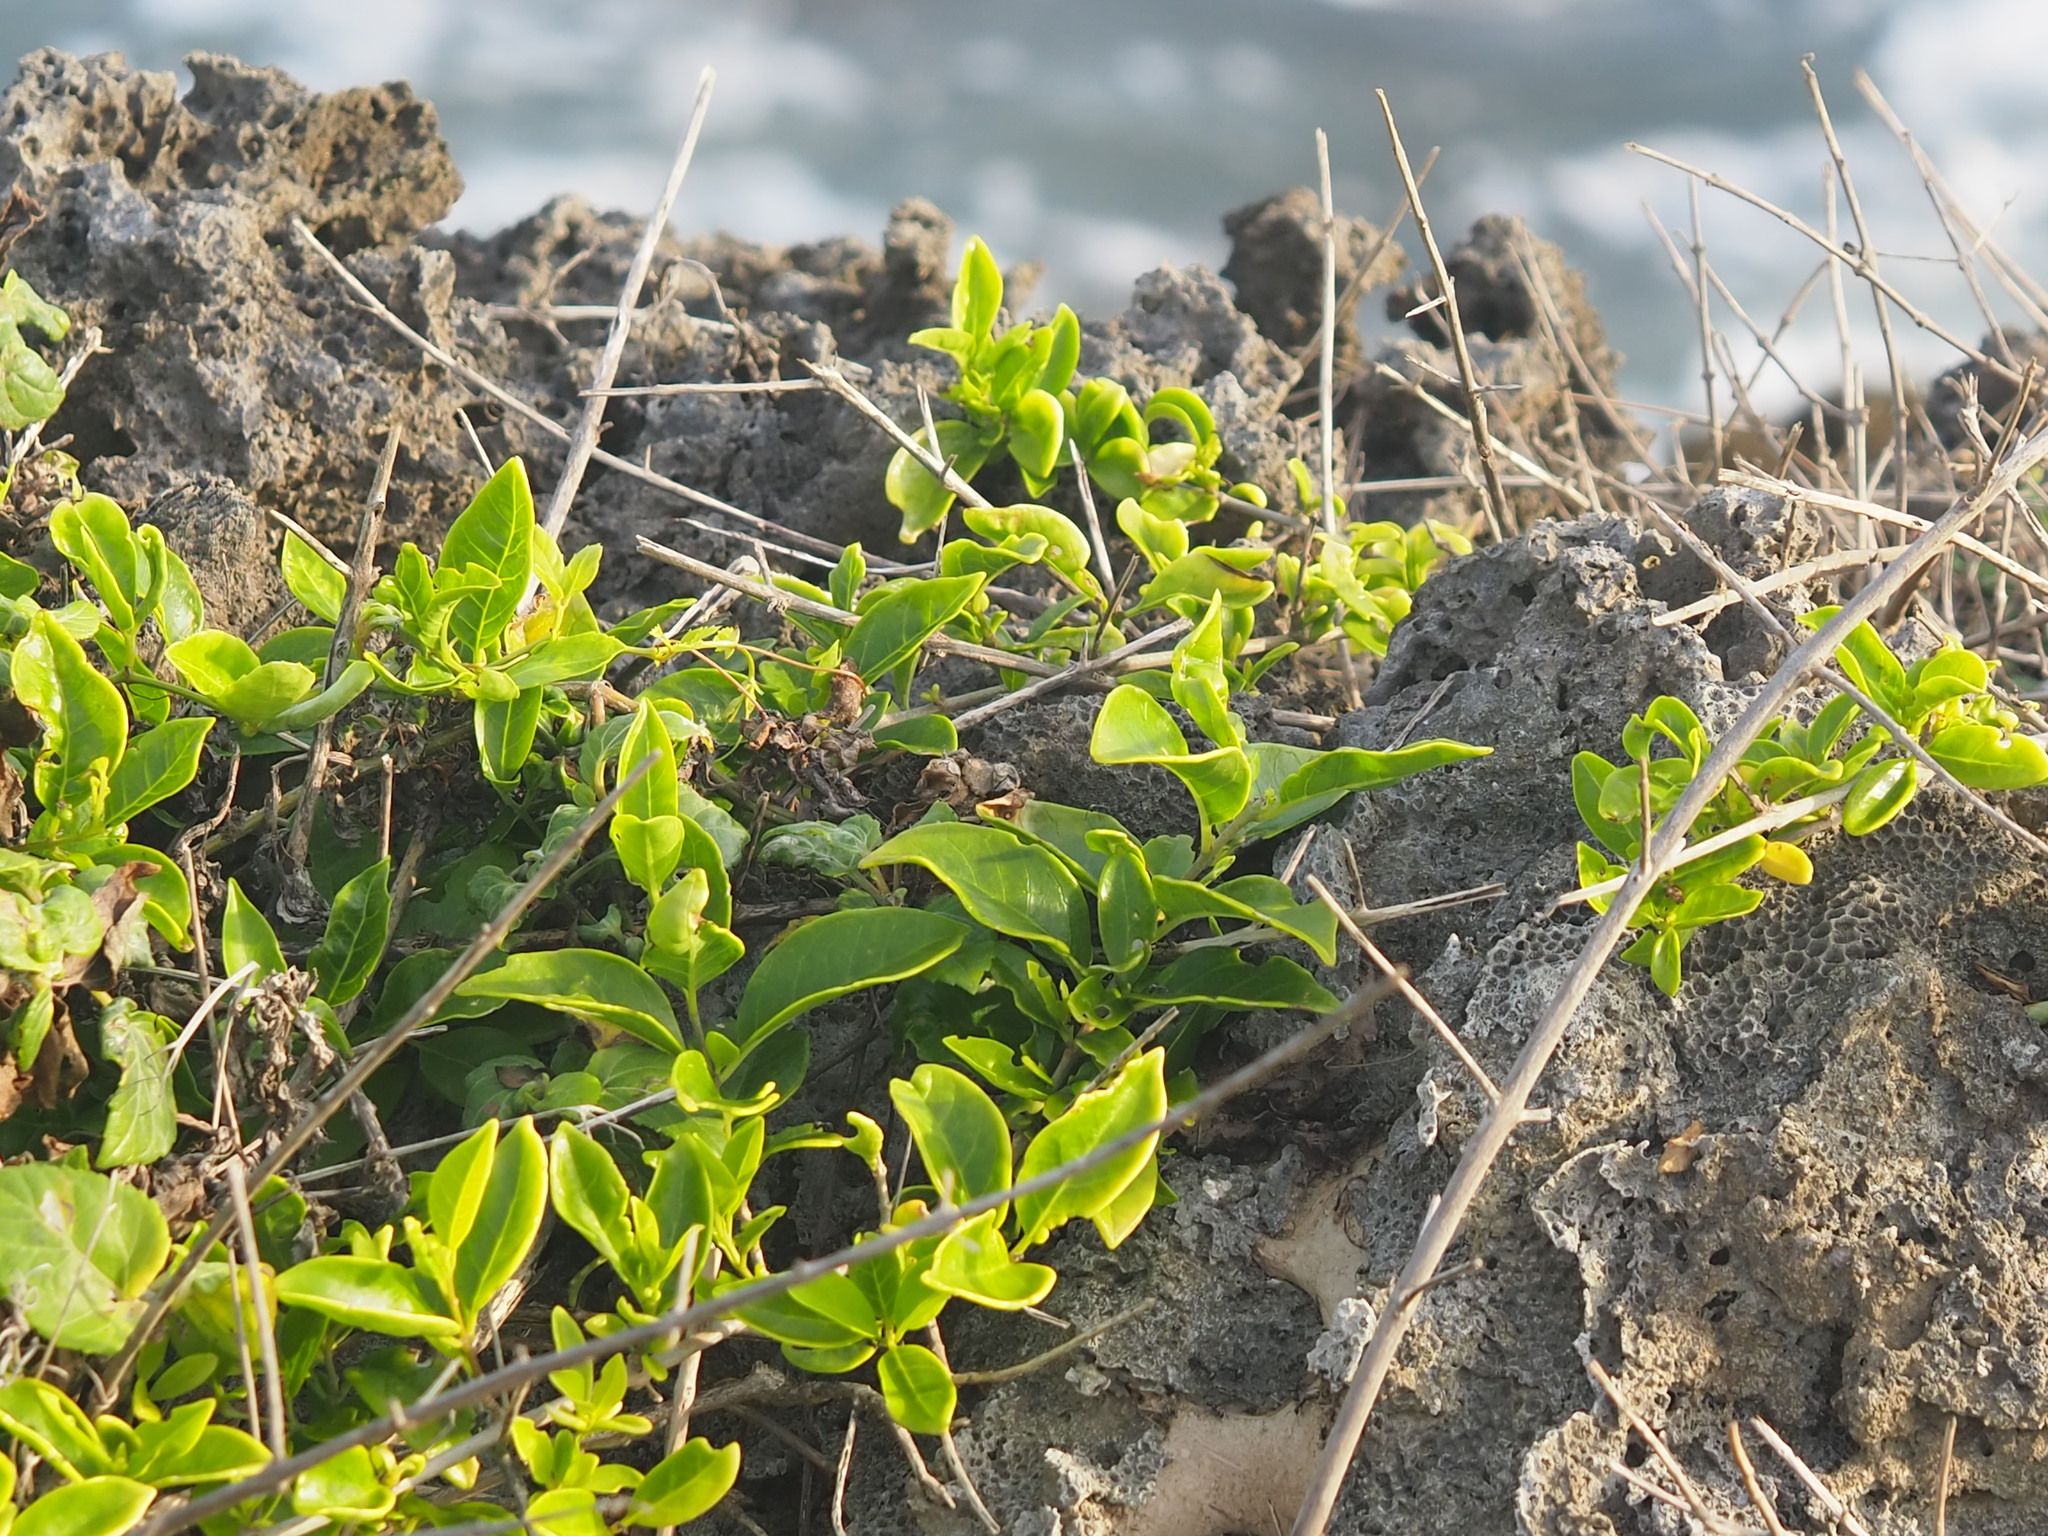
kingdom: Plantae
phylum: Tracheophyta
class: Magnoliopsida
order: Lamiales
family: Lamiaceae
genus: Volkameria
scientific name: Volkameria inermis
